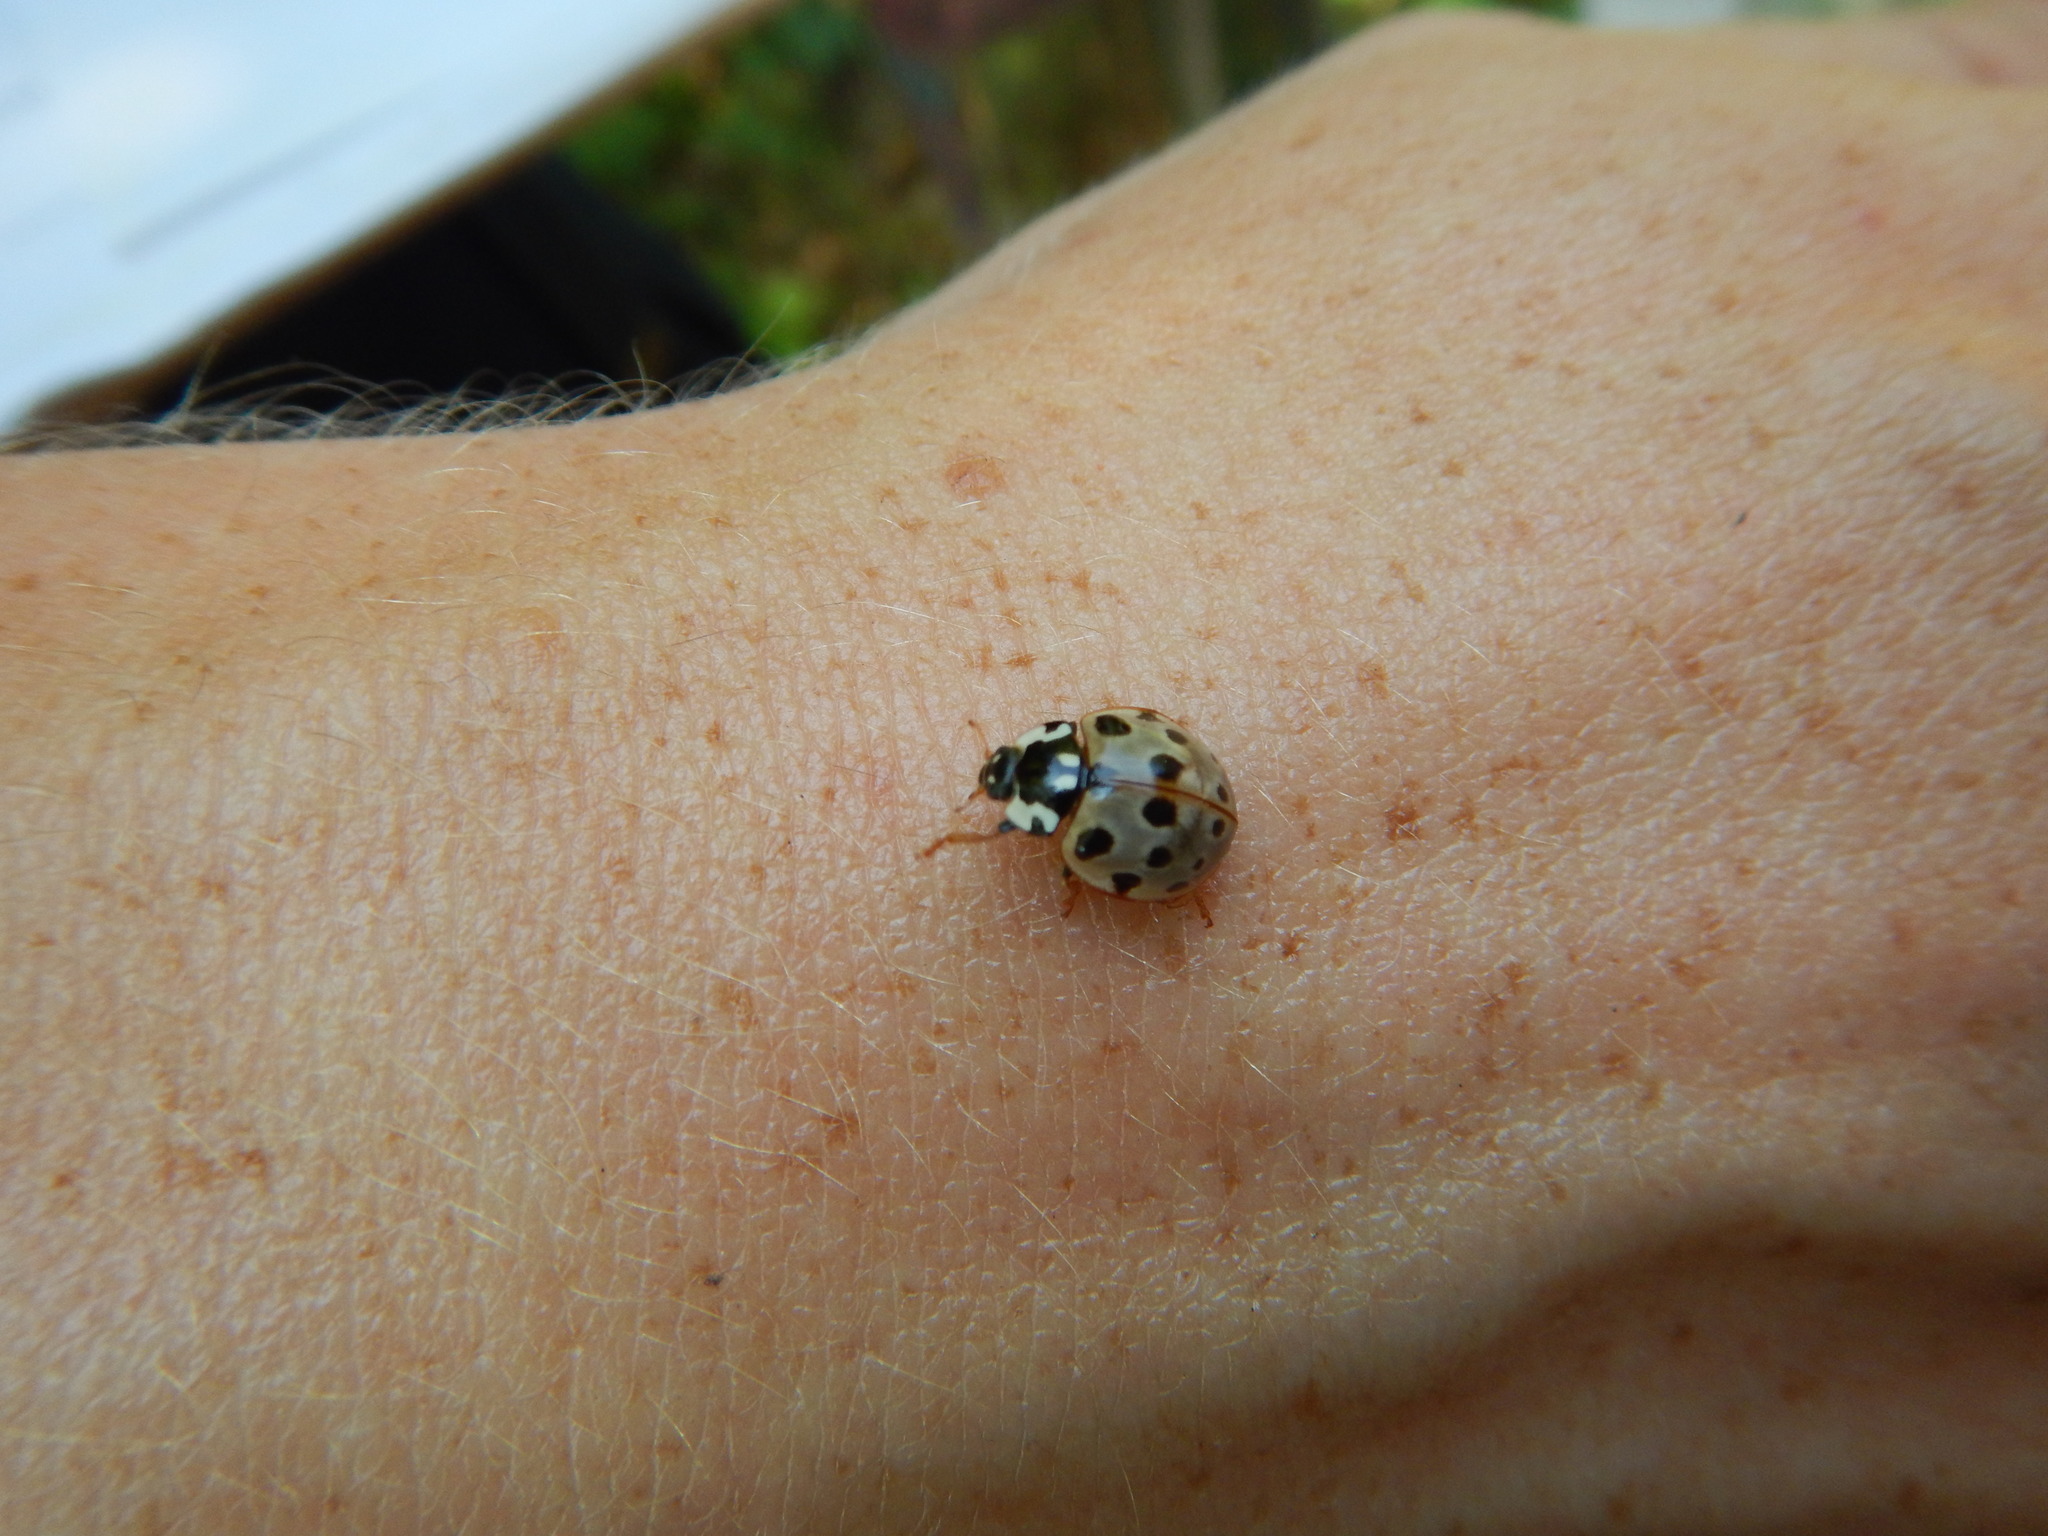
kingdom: Animalia
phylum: Arthropoda
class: Insecta
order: Coleoptera
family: Coccinellidae
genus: Anatis
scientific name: Anatis labiculata
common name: Fifteen-spotted lady beetle
